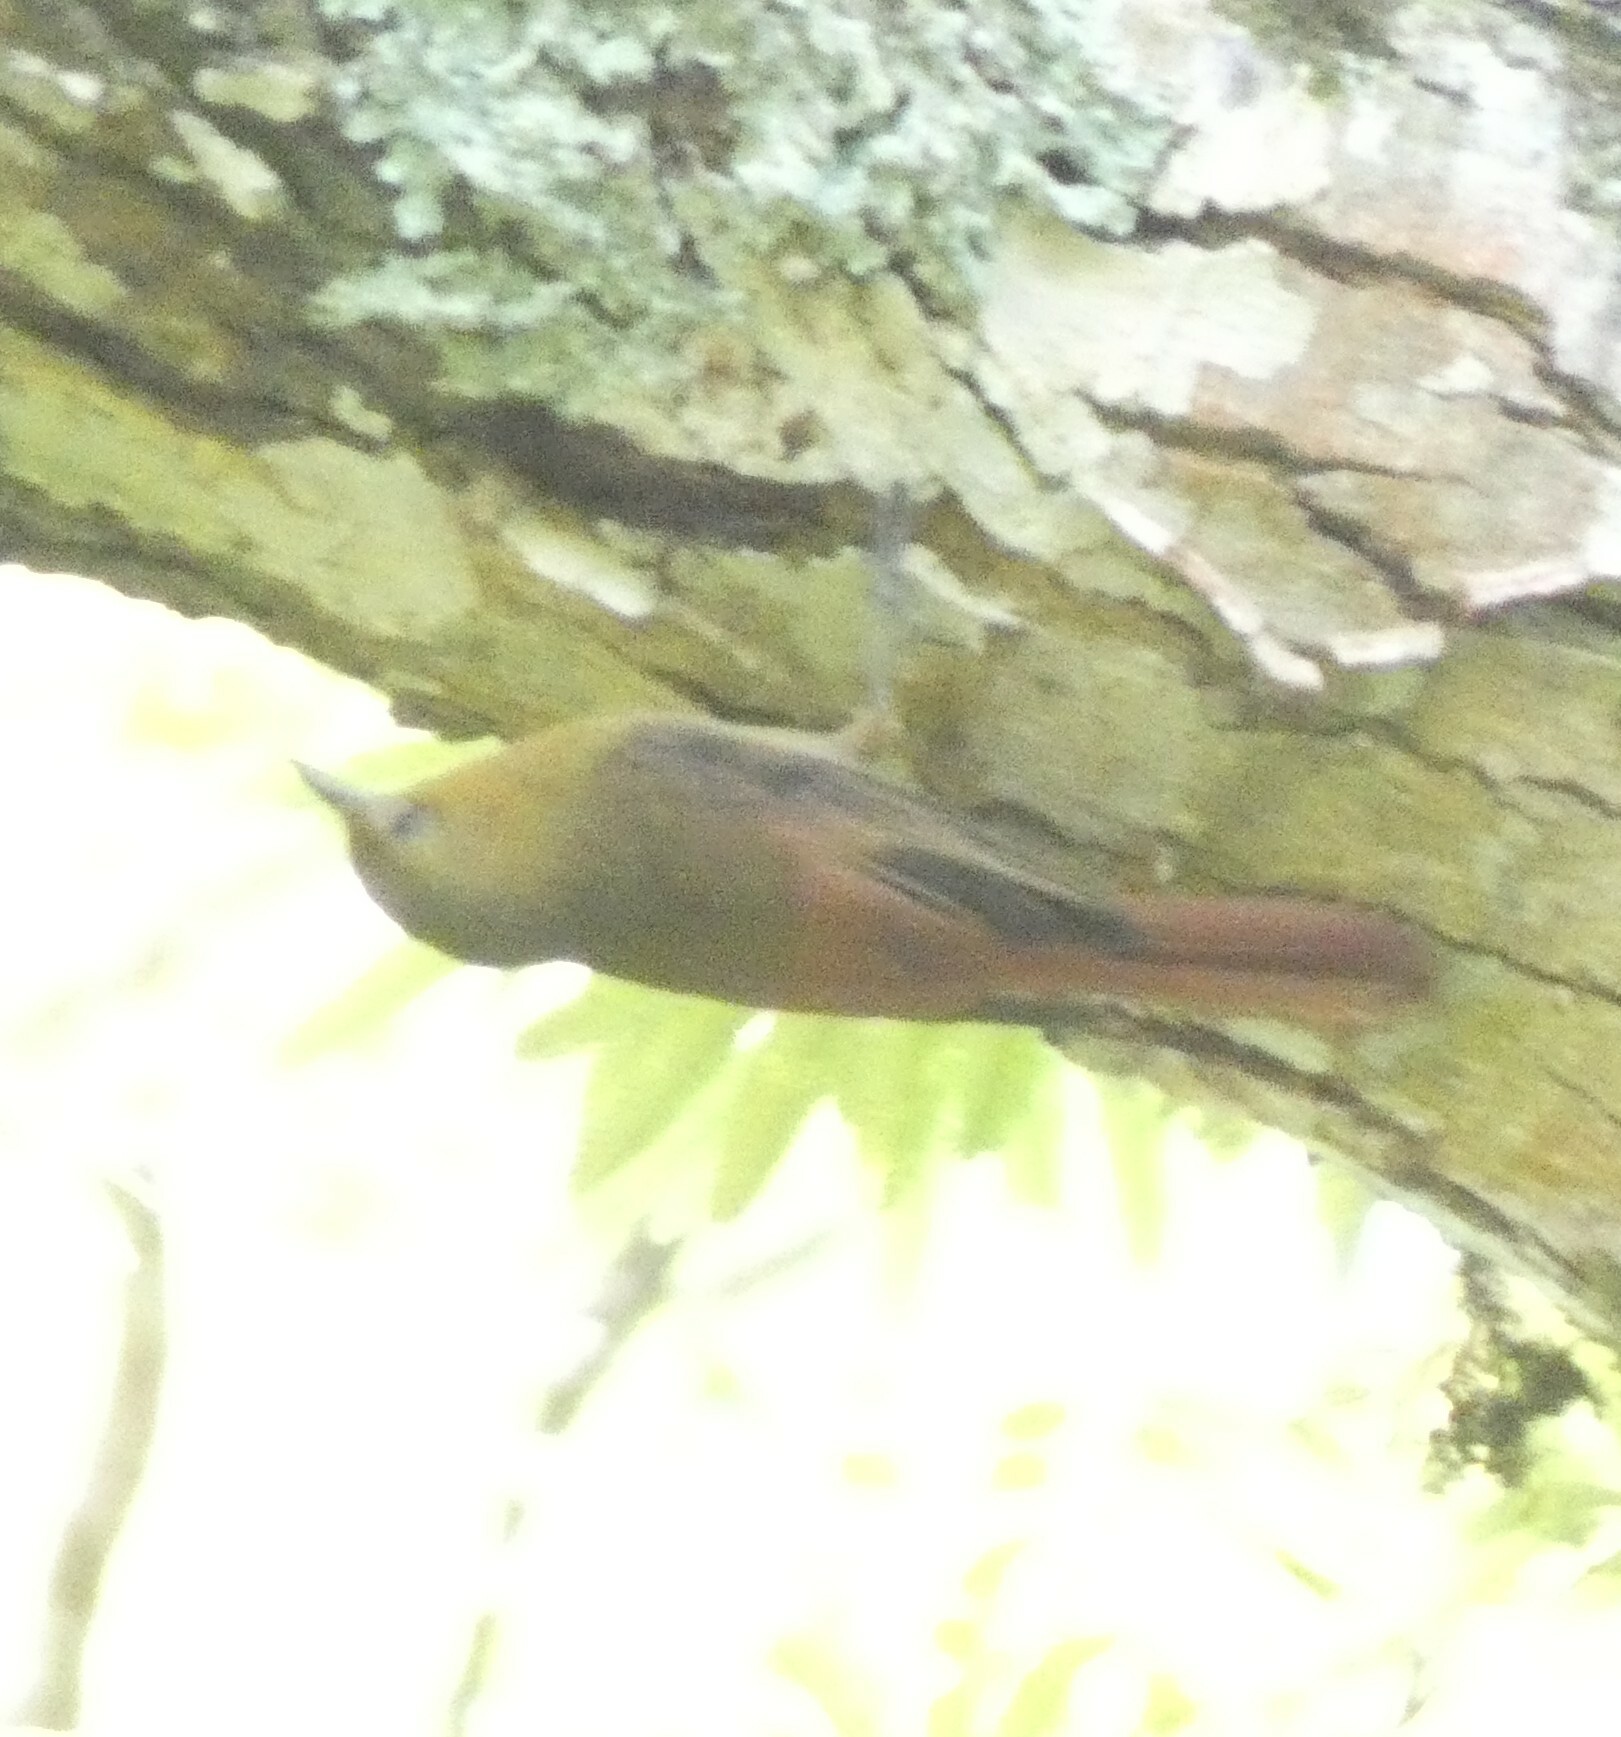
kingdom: Animalia
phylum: Chordata
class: Aves
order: Passeriformes
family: Furnariidae
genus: Sittasomus
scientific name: Sittasomus griseicapillus
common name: Olivaceous woodcreeper
